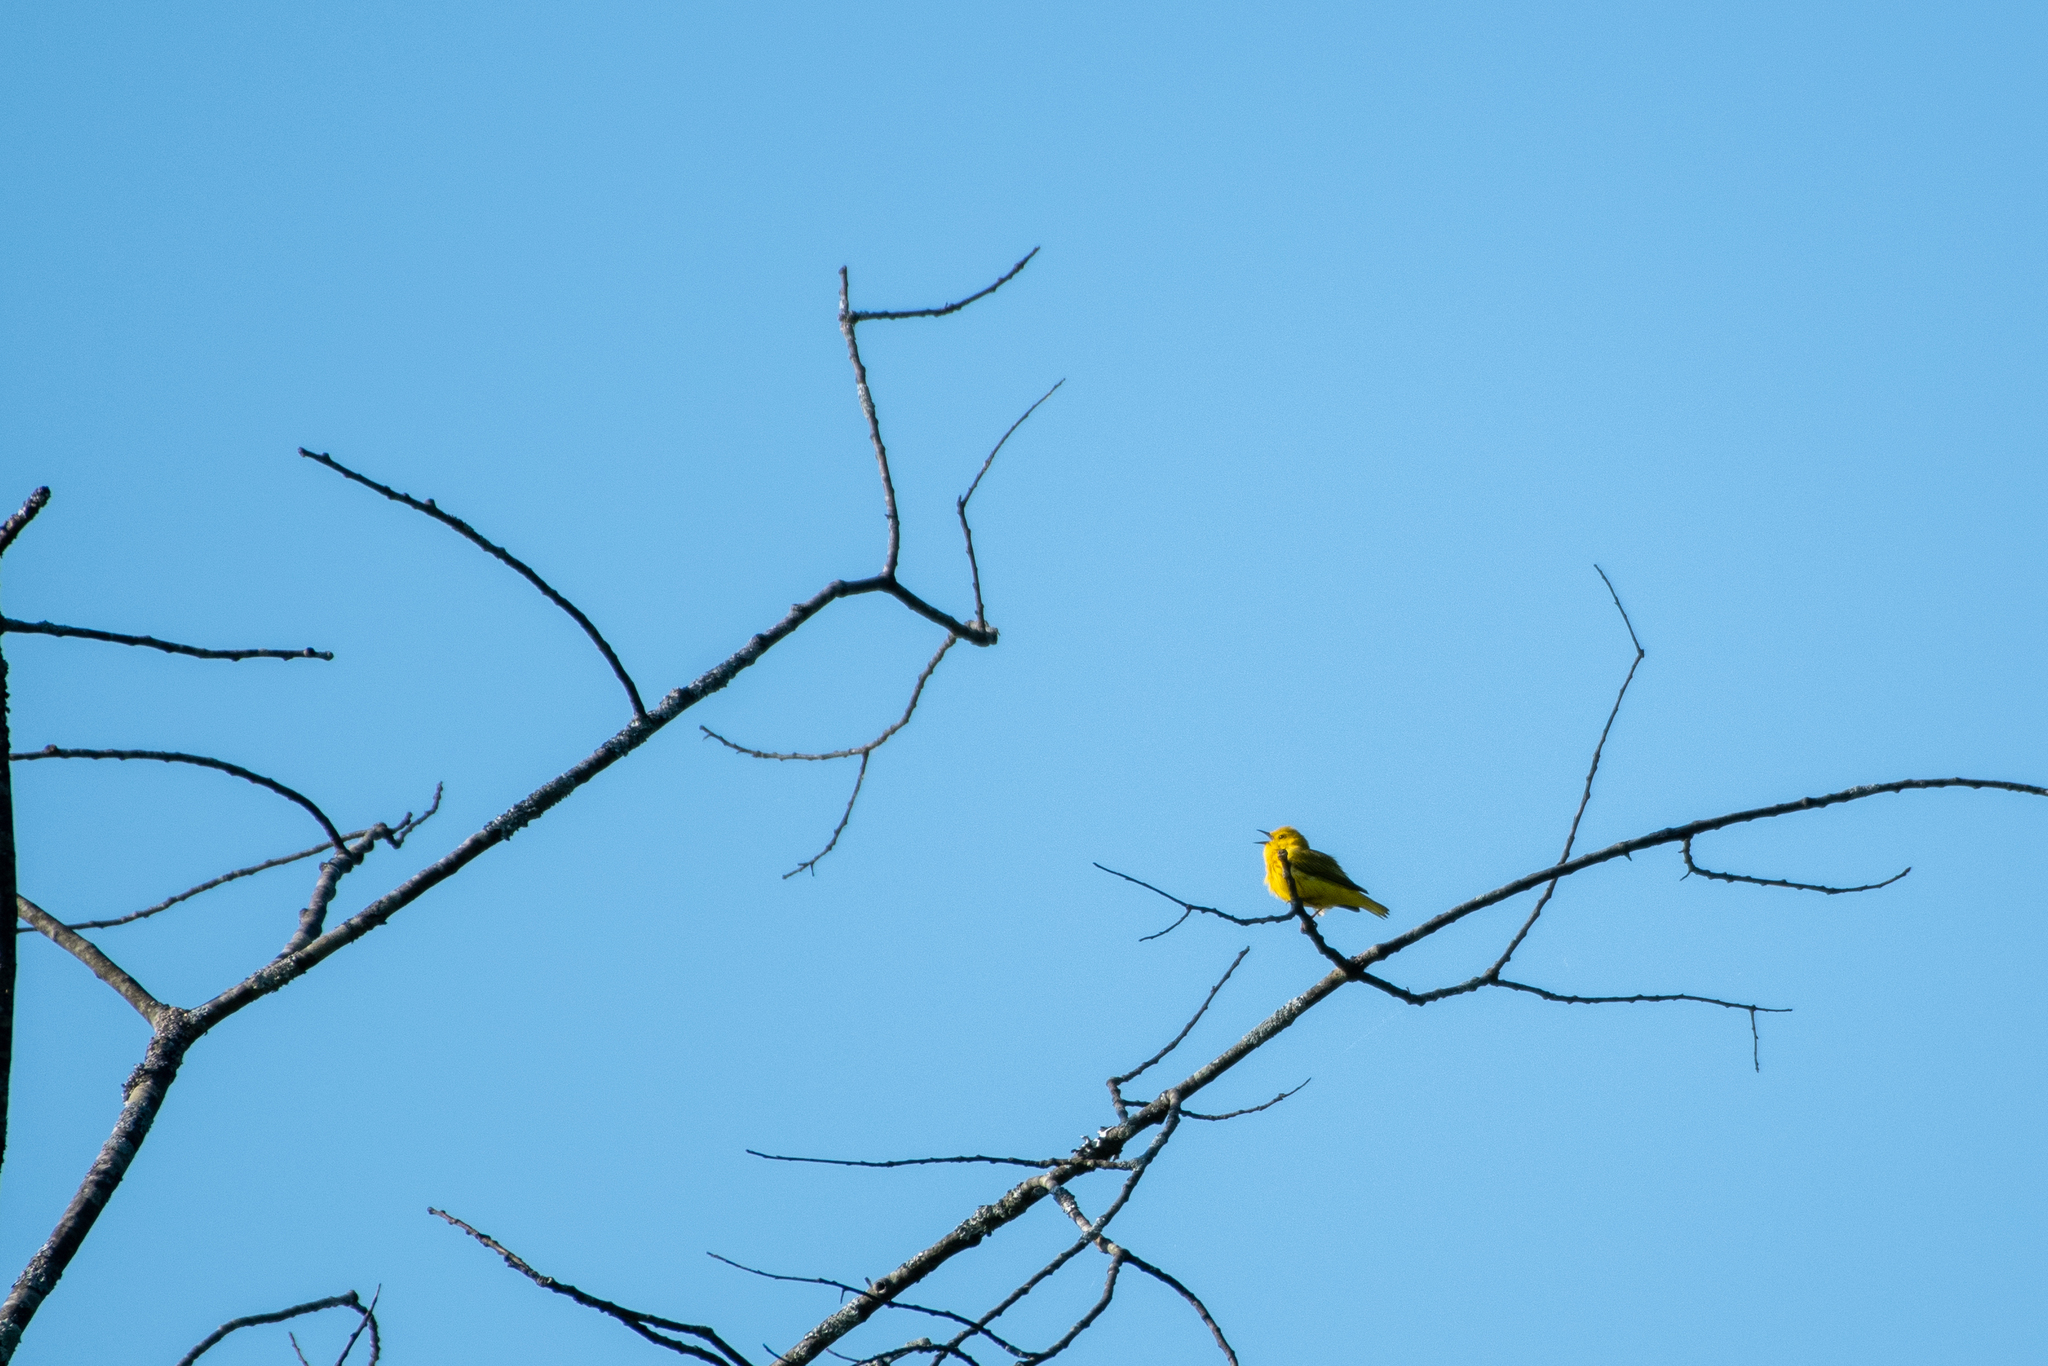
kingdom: Animalia
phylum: Chordata
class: Aves
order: Passeriformes
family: Parulidae
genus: Setophaga
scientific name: Setophaga petechia
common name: Yellow warbler
